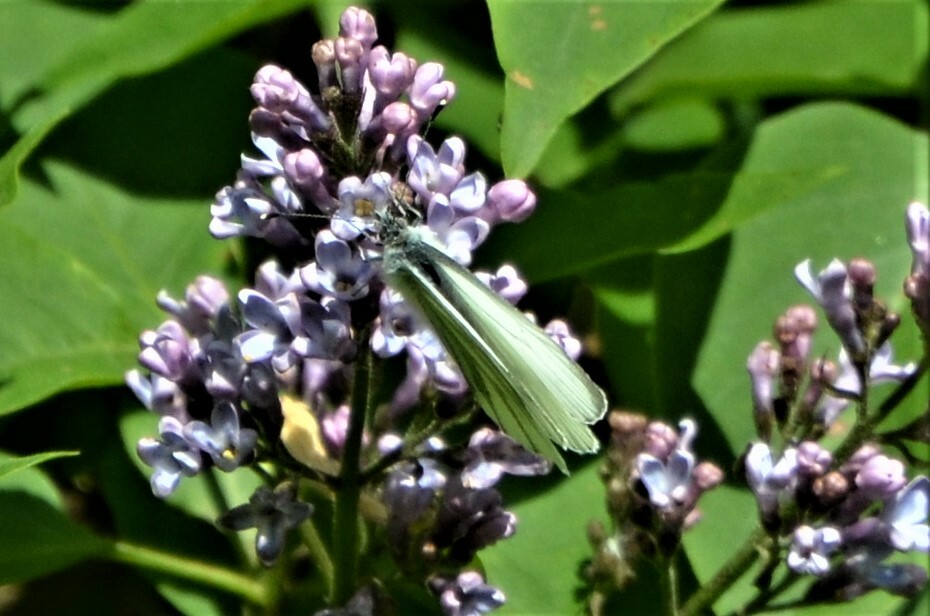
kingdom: Animalia
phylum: Arthropoda
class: Insecta
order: Lepidoptera
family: Pieridae
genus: Pieris
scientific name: Pieris napi
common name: Green-veined white
